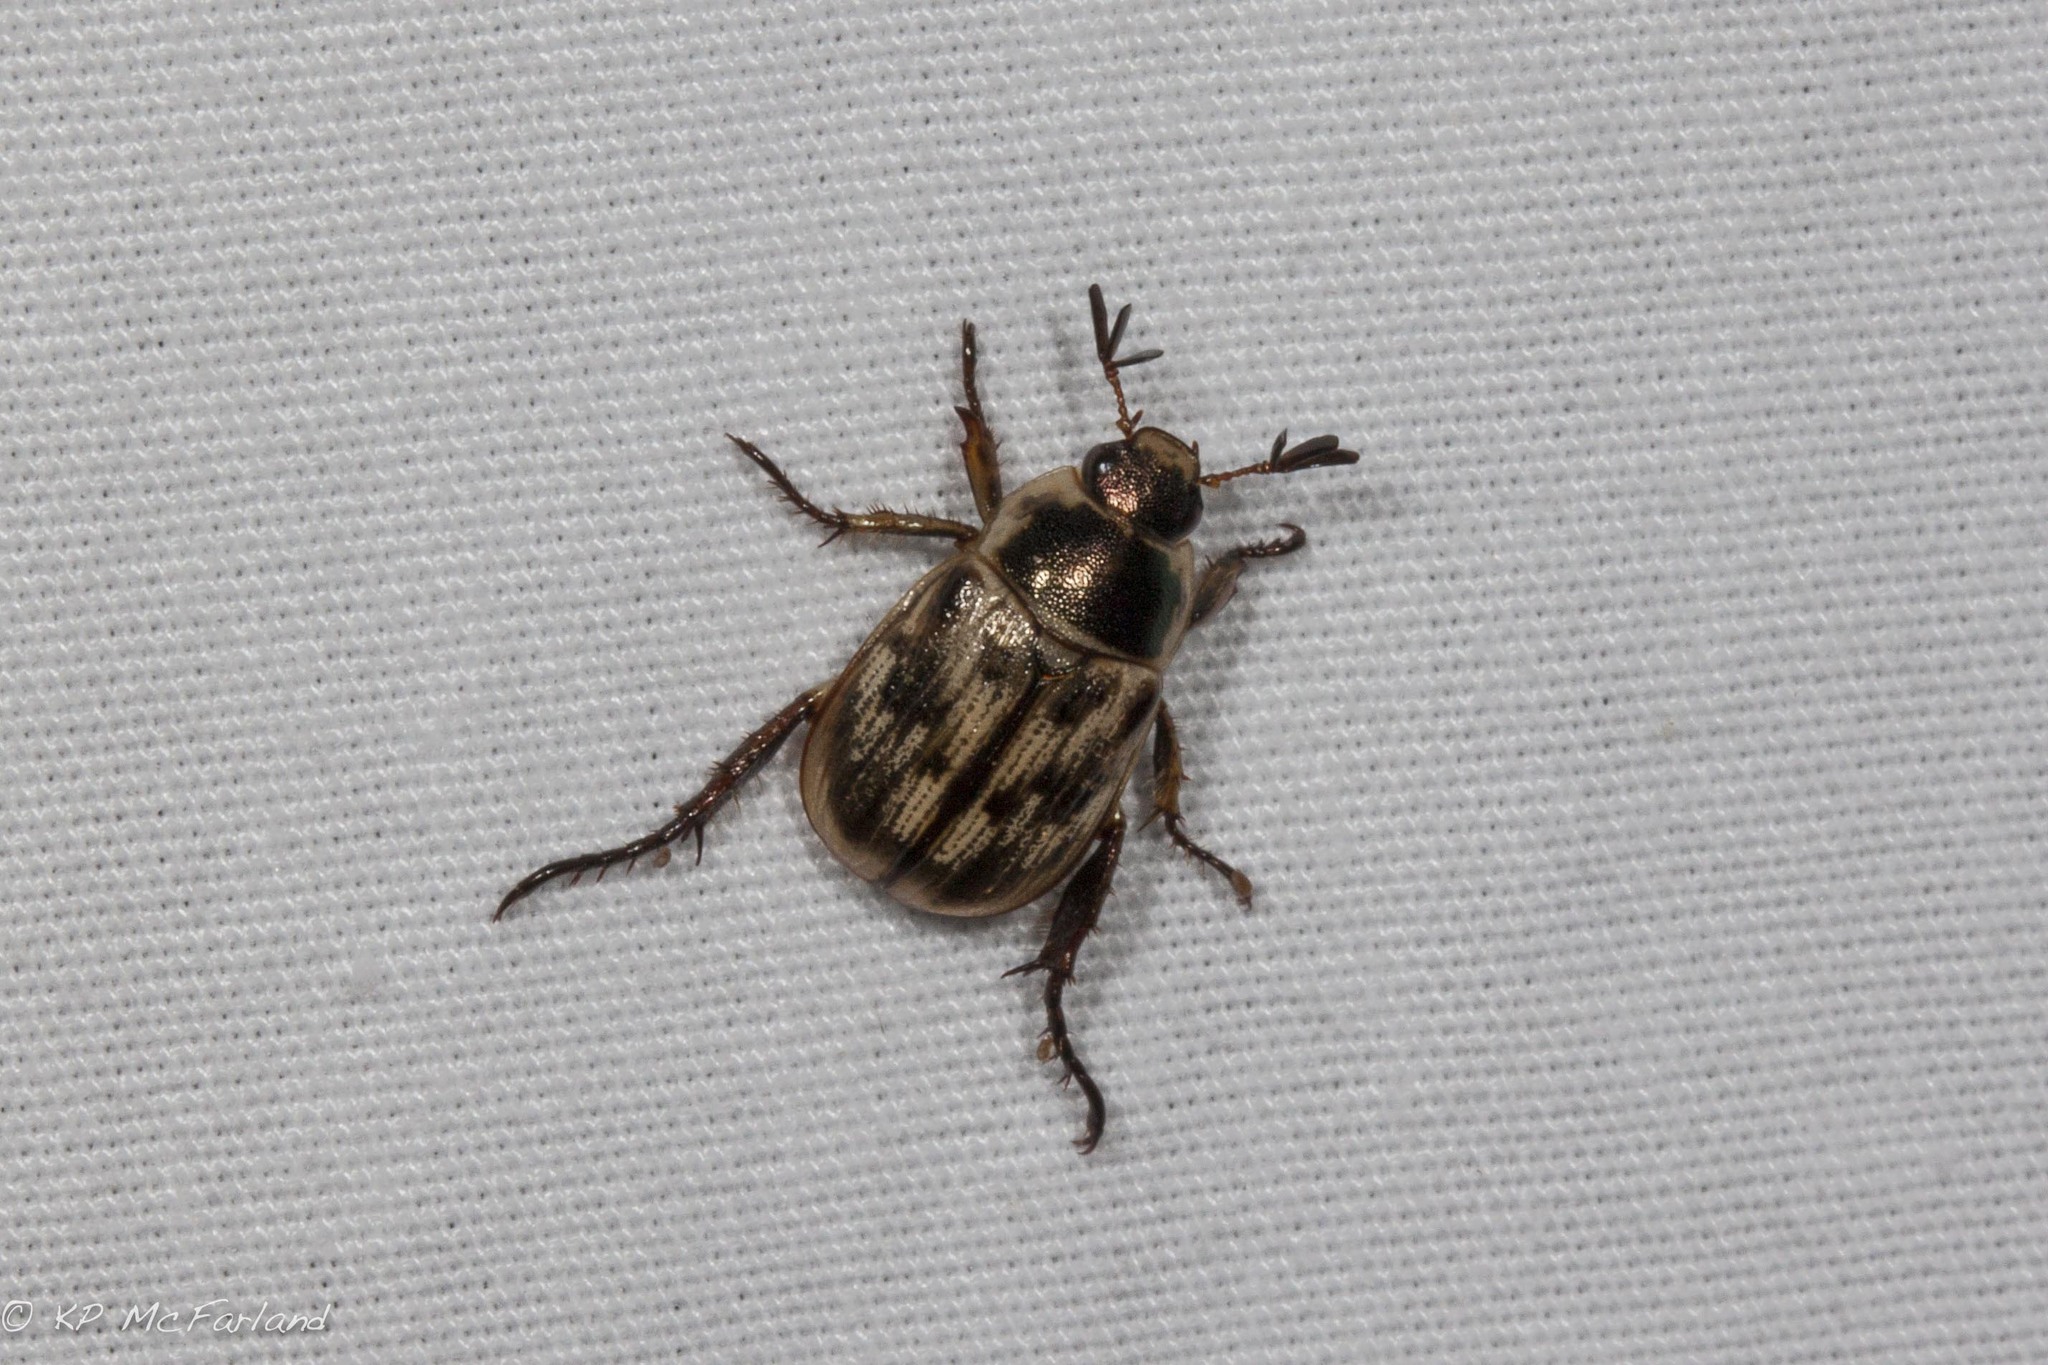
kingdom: Animalia
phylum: Arthropoda
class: Insecta
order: Coleoptera
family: Scarabaeidae
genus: Exomala
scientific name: Exomala orientalis
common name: Oriental beetle
